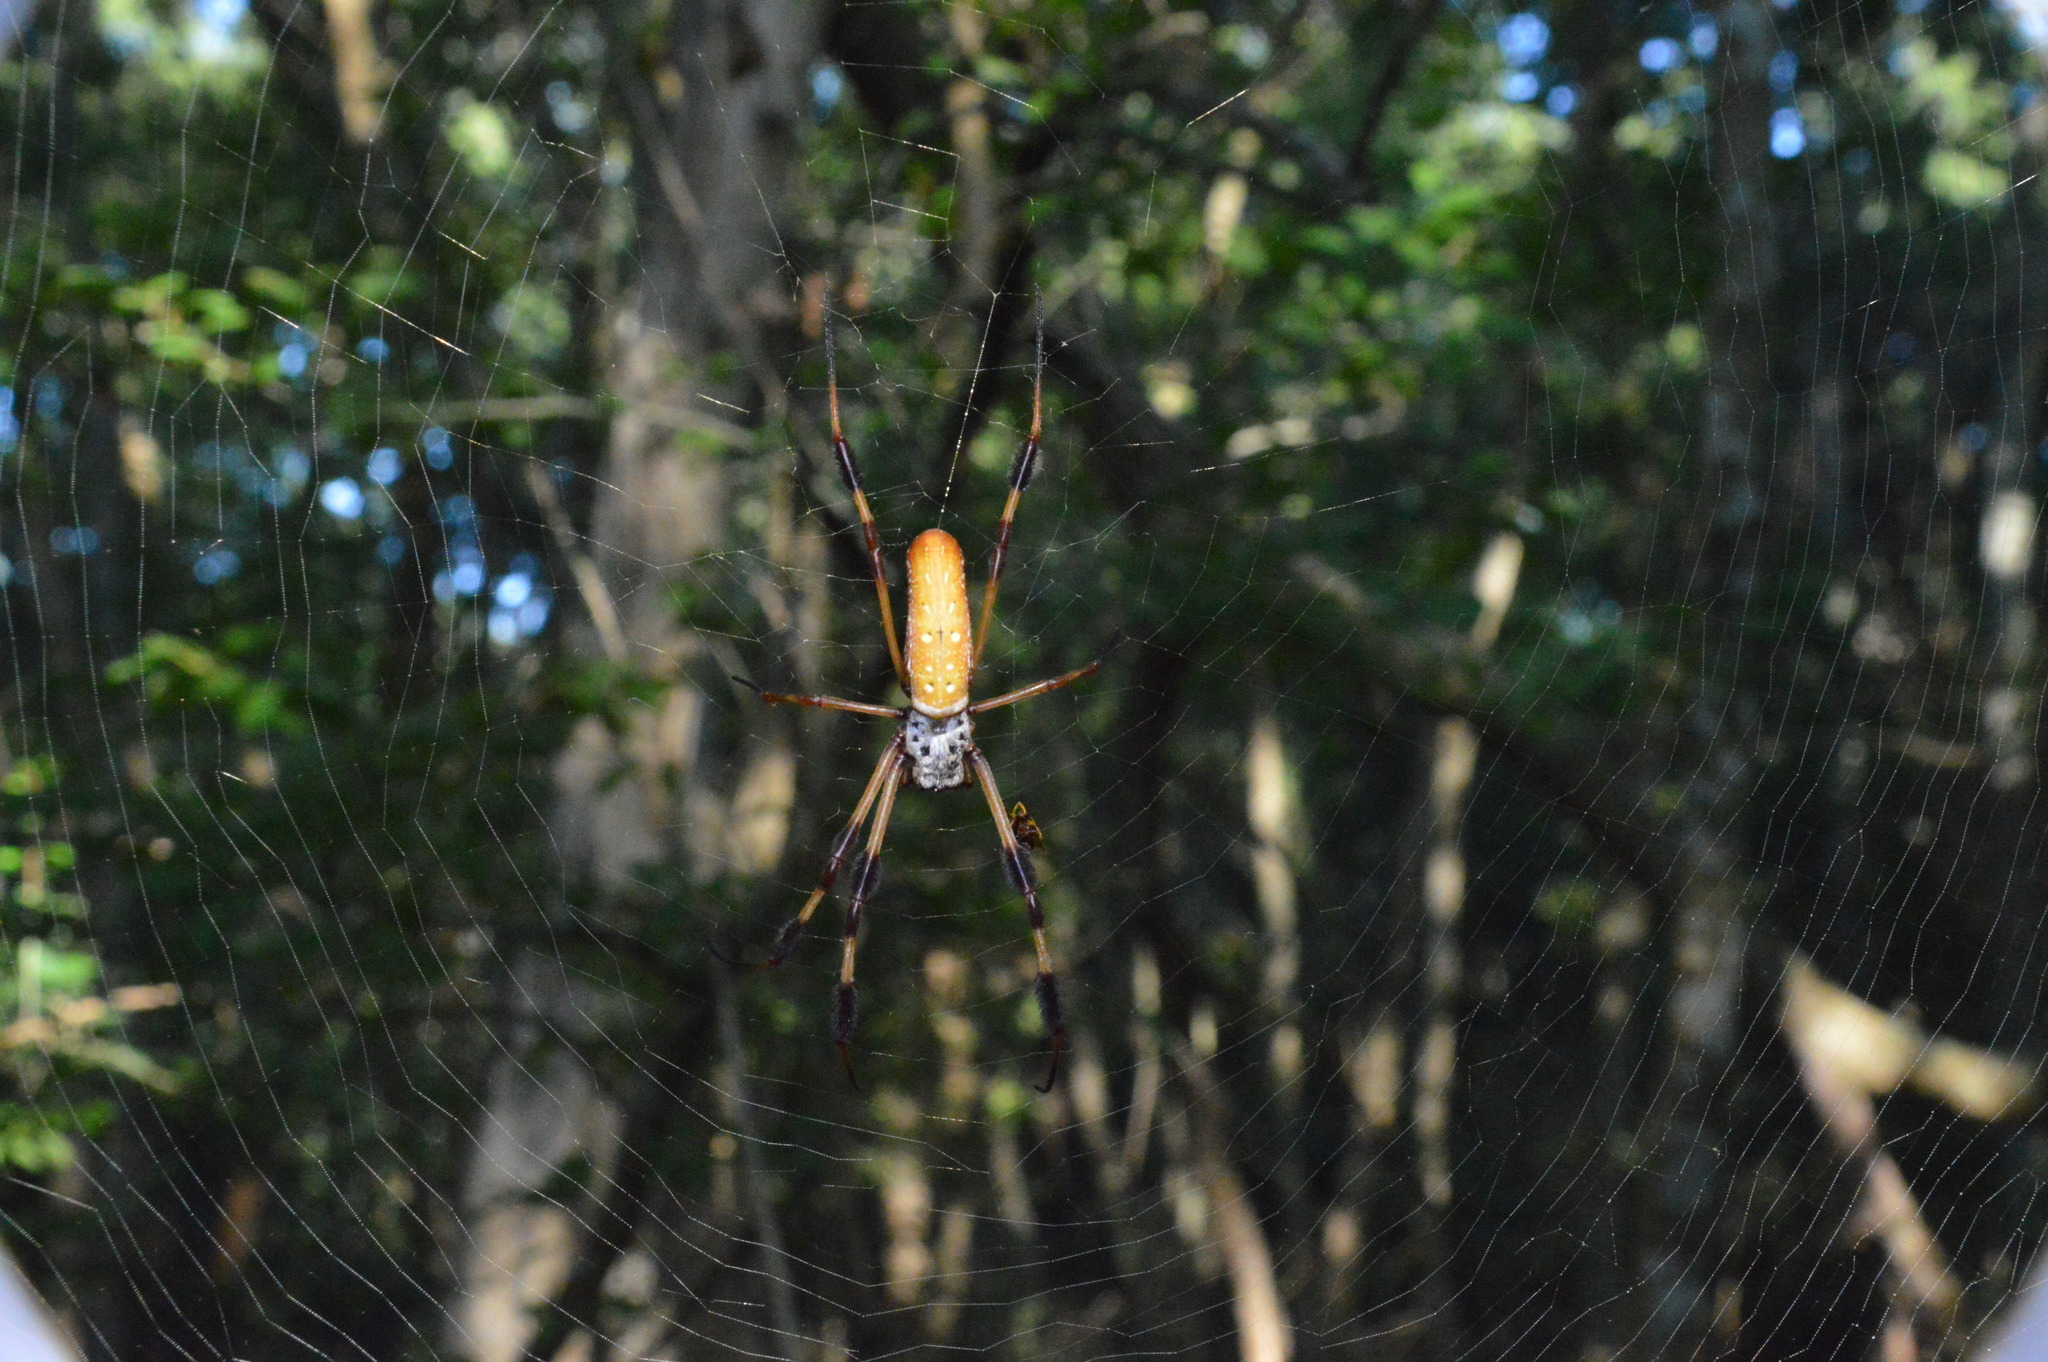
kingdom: Animalia
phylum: Arthropoda
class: Arachnida
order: Araneae
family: Araneidae
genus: Trichonephila
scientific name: Trichonephila clavipes
